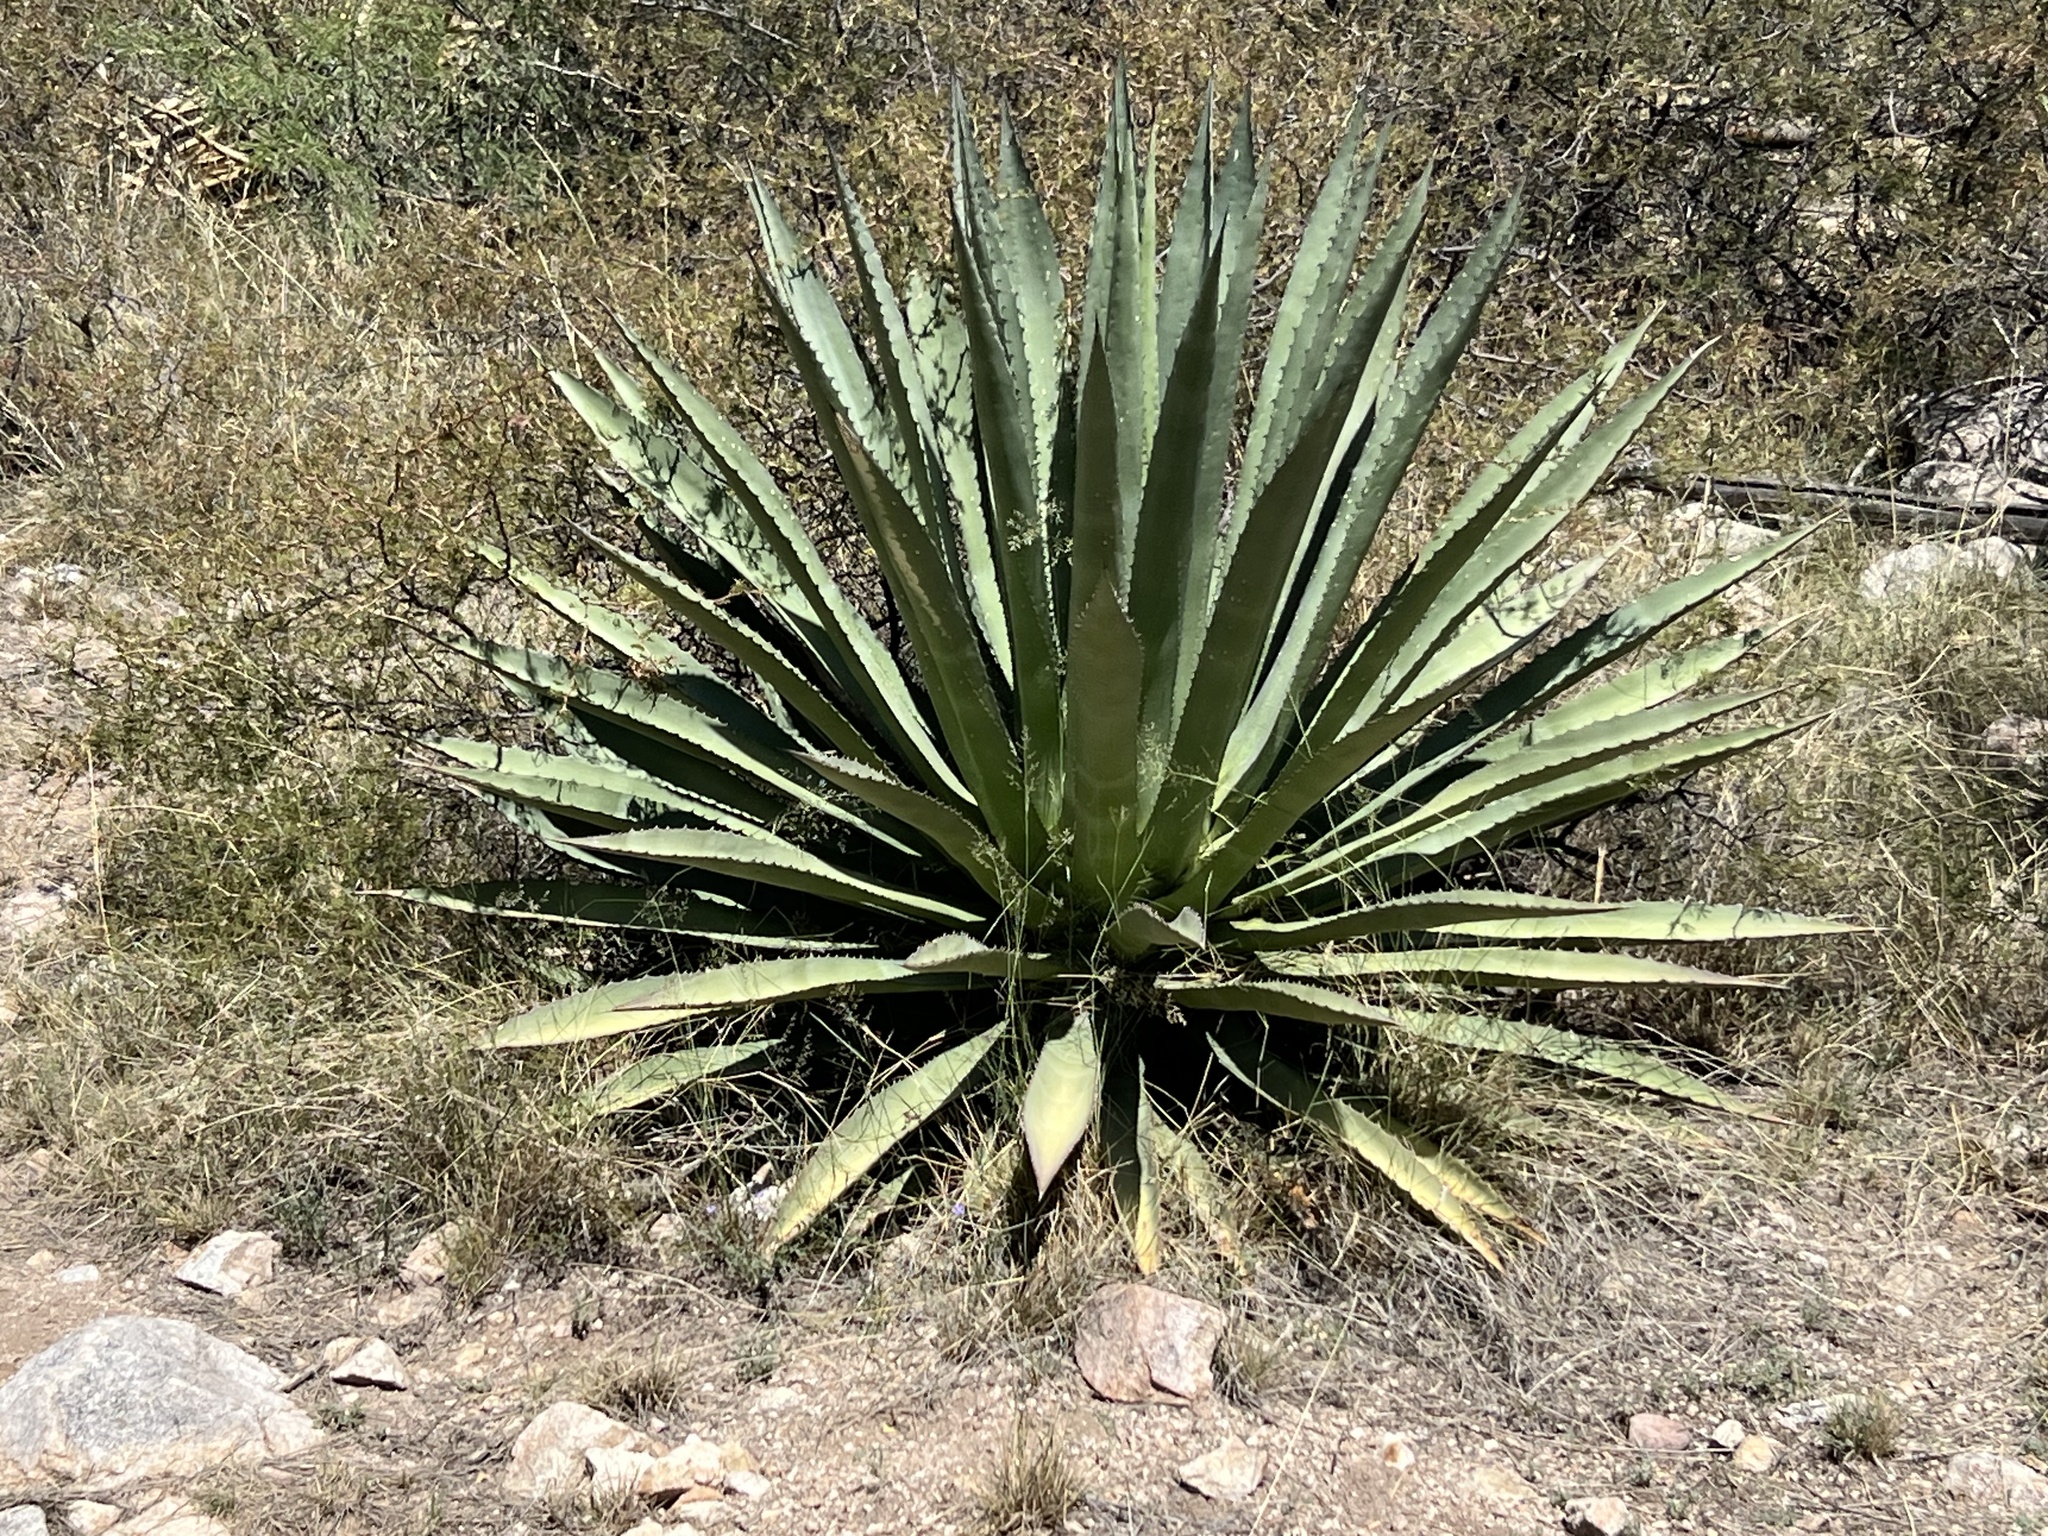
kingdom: Plantae
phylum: Tracheophyta
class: Liliopsida
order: Asparagales
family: Asparagaceae
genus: Agave
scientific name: Agave palmeri
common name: Palmer agave
